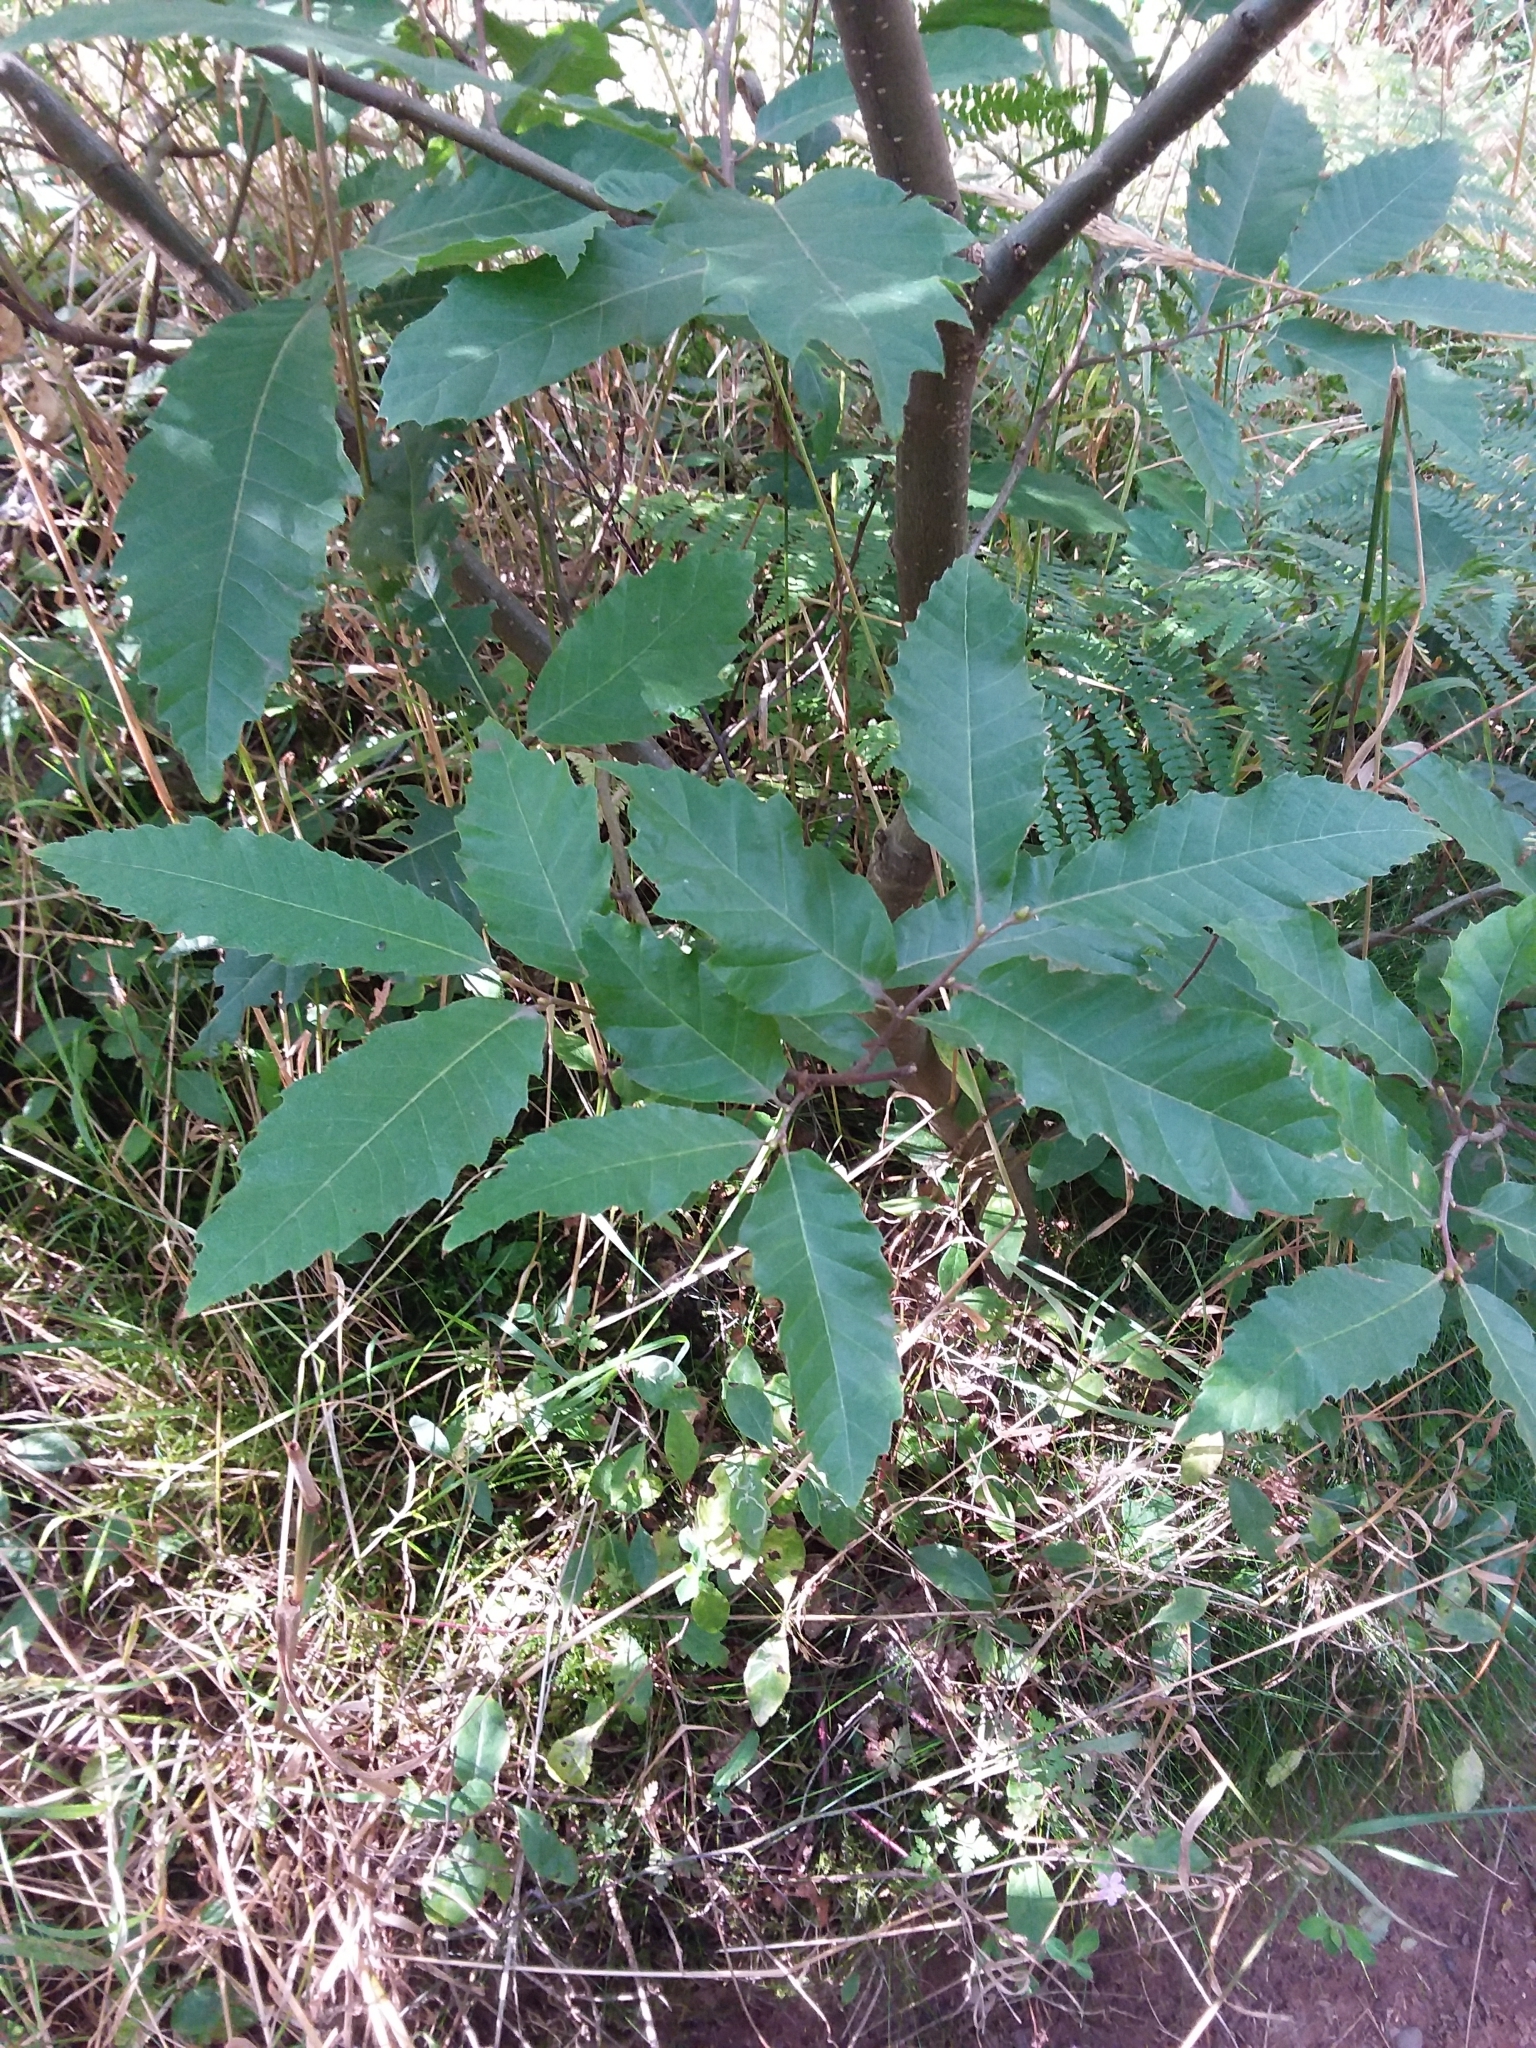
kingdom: Plantae
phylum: Tracheophyta
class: Magnoliopsida
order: Fagales
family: Fagaceae
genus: Castanea
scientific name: Castanea sativa
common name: Sweet chestnut
